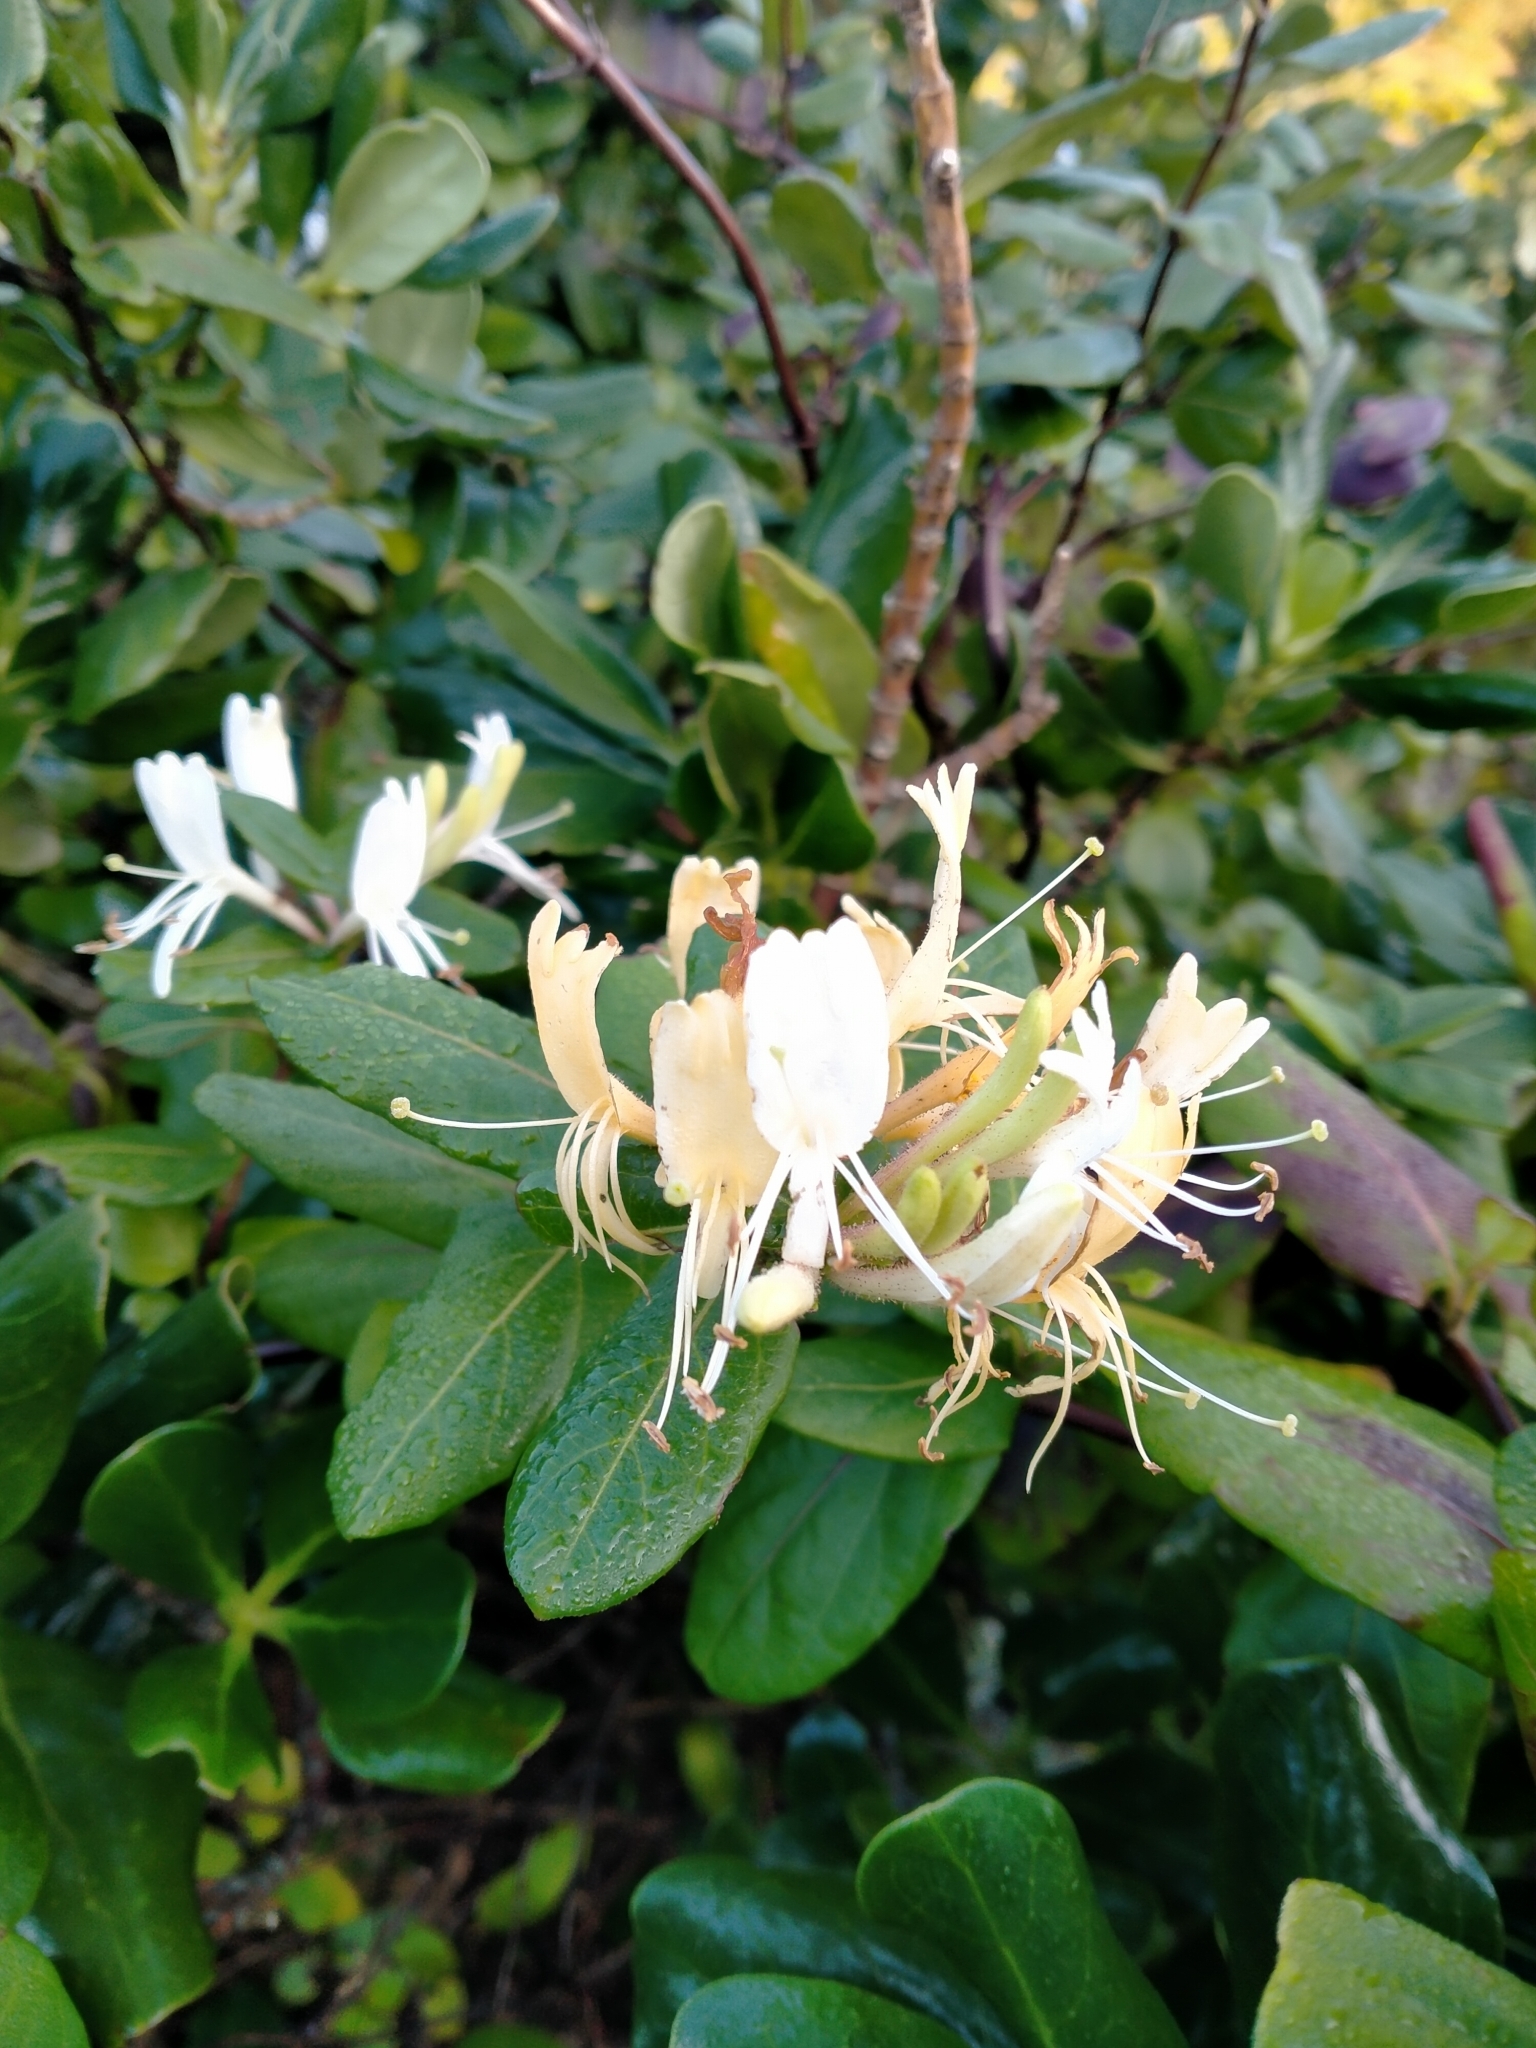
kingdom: Plantae
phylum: Tracheophyta
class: Magnoliopsida
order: Dipsacales
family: Caprifoliaceae
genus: Lonicera
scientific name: Lonicera japonica
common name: Japanese honeysuckle
